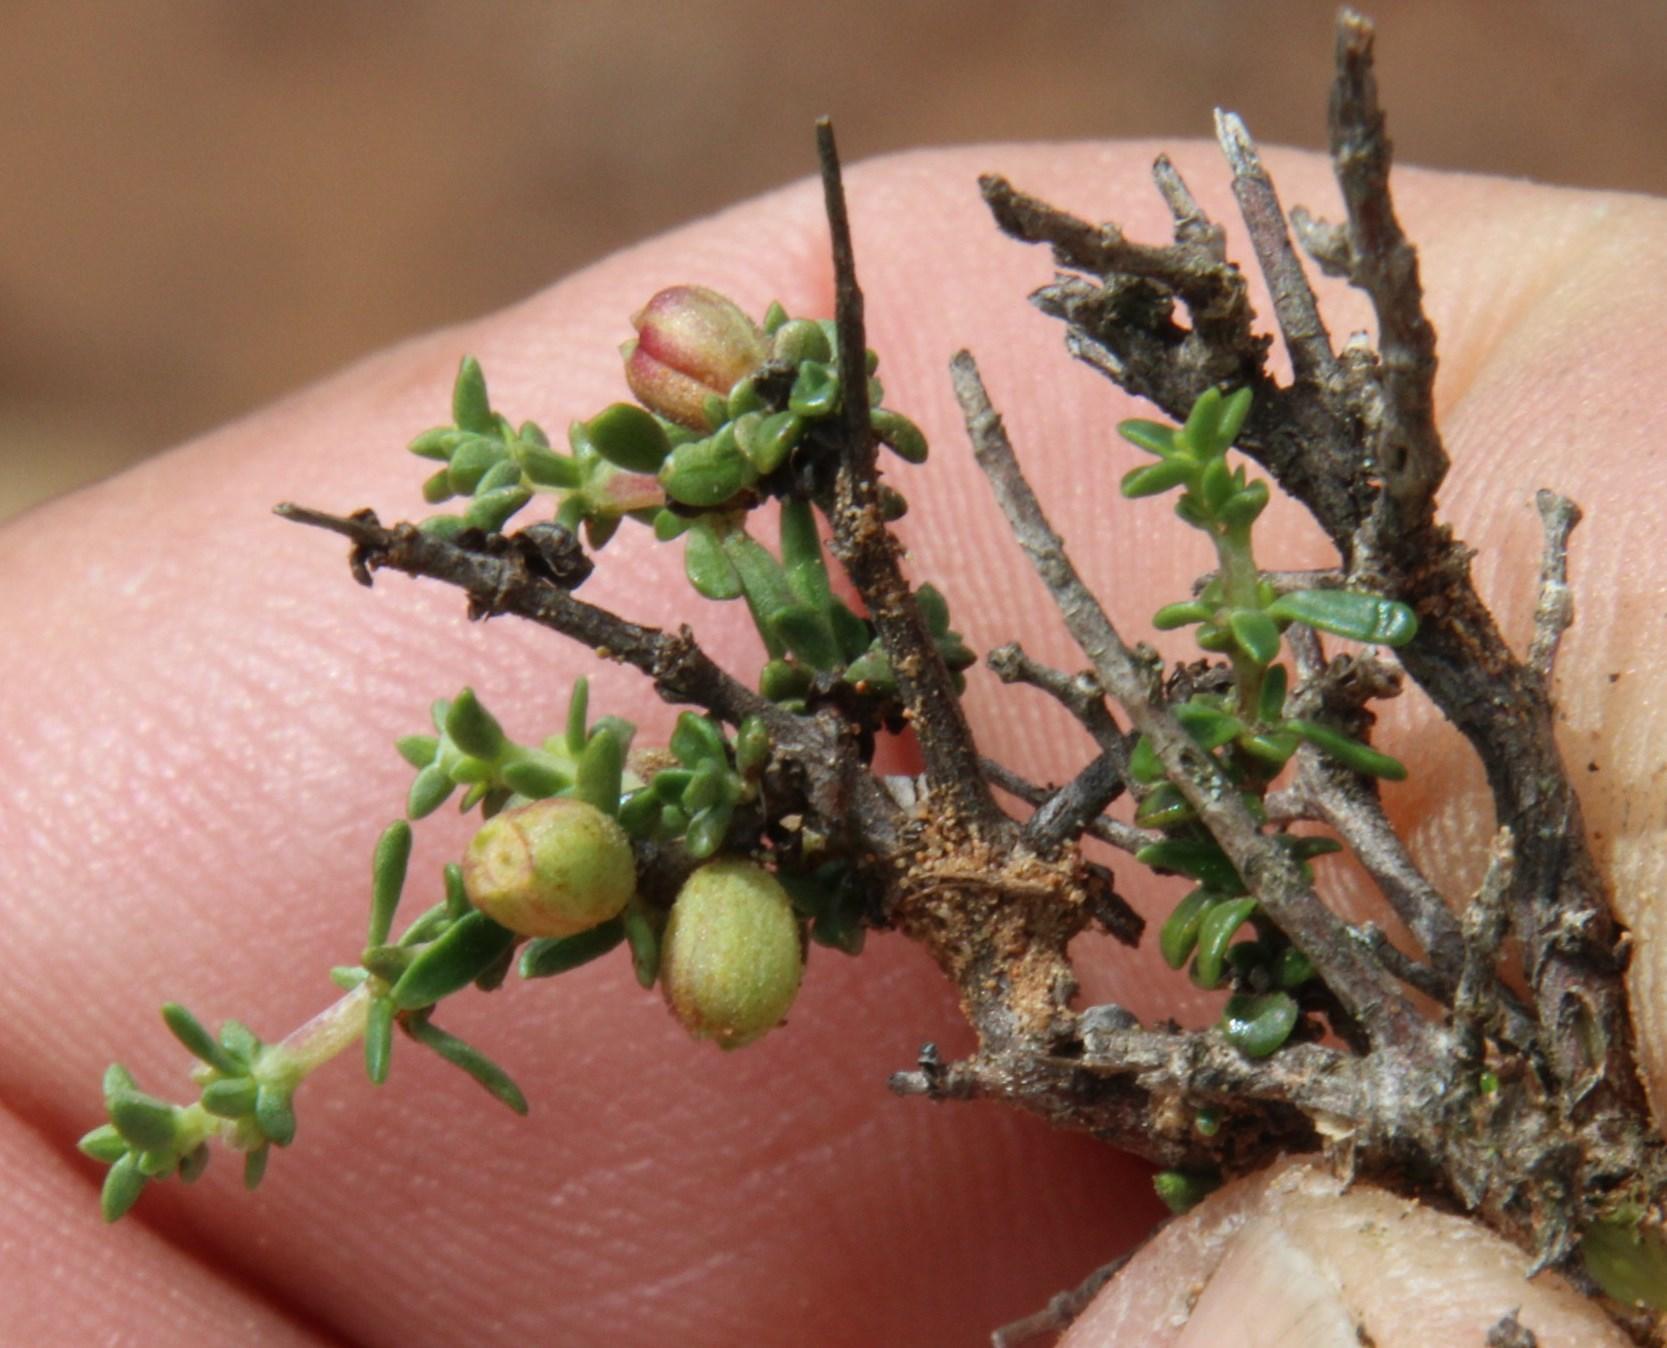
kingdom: Plantae
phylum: Tracheophyta
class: Magnoliopsida
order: Gentianales
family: Rubiaceae
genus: Nenax
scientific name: Nenax microphylla
